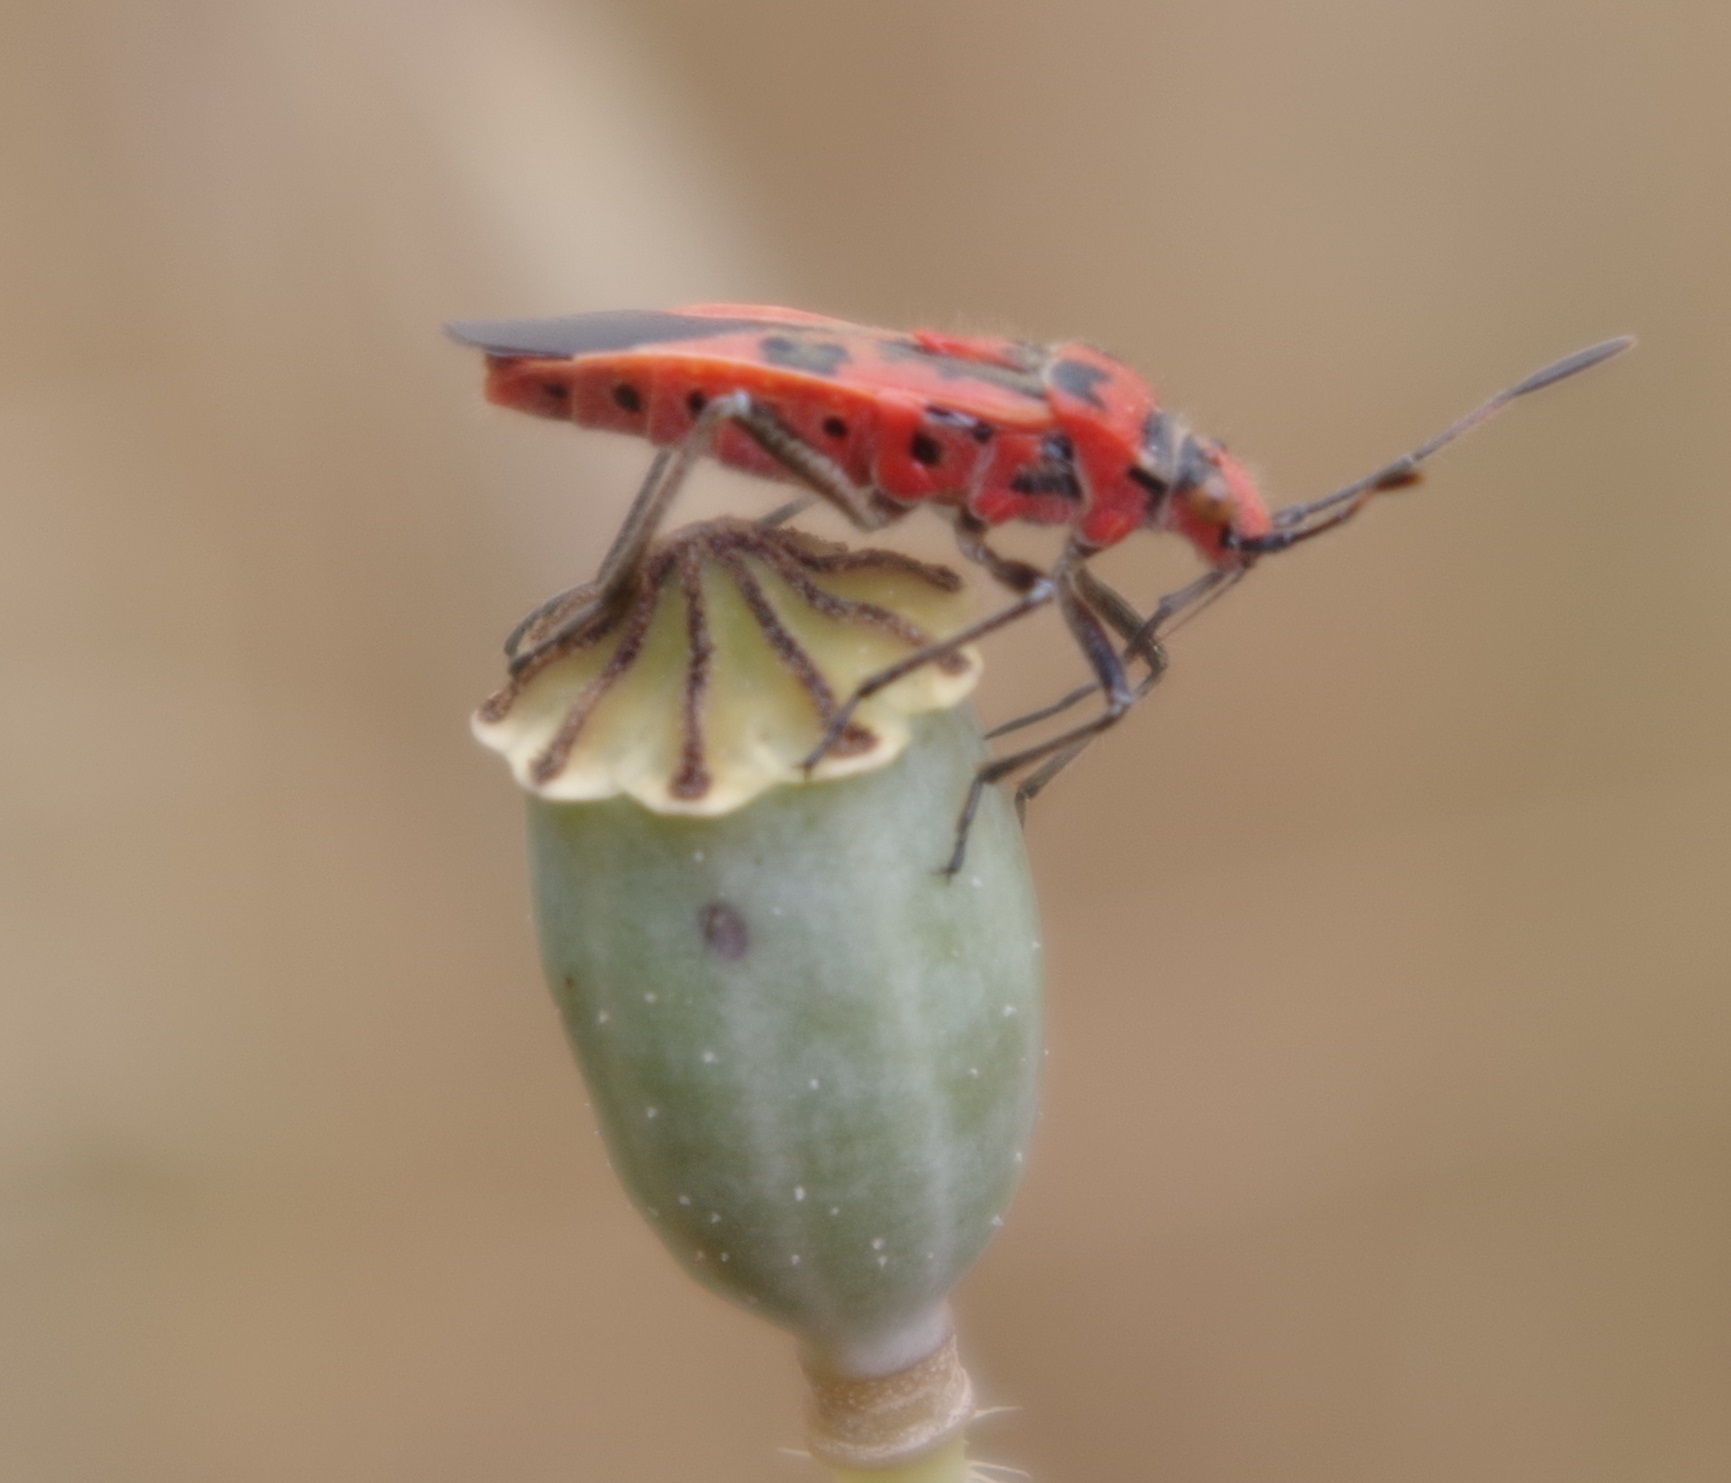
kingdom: Animalia
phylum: Arthropoda
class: Insecta
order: Hemiptera
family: Rhopalidae
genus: Corizus
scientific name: Corizus hyoscyami
